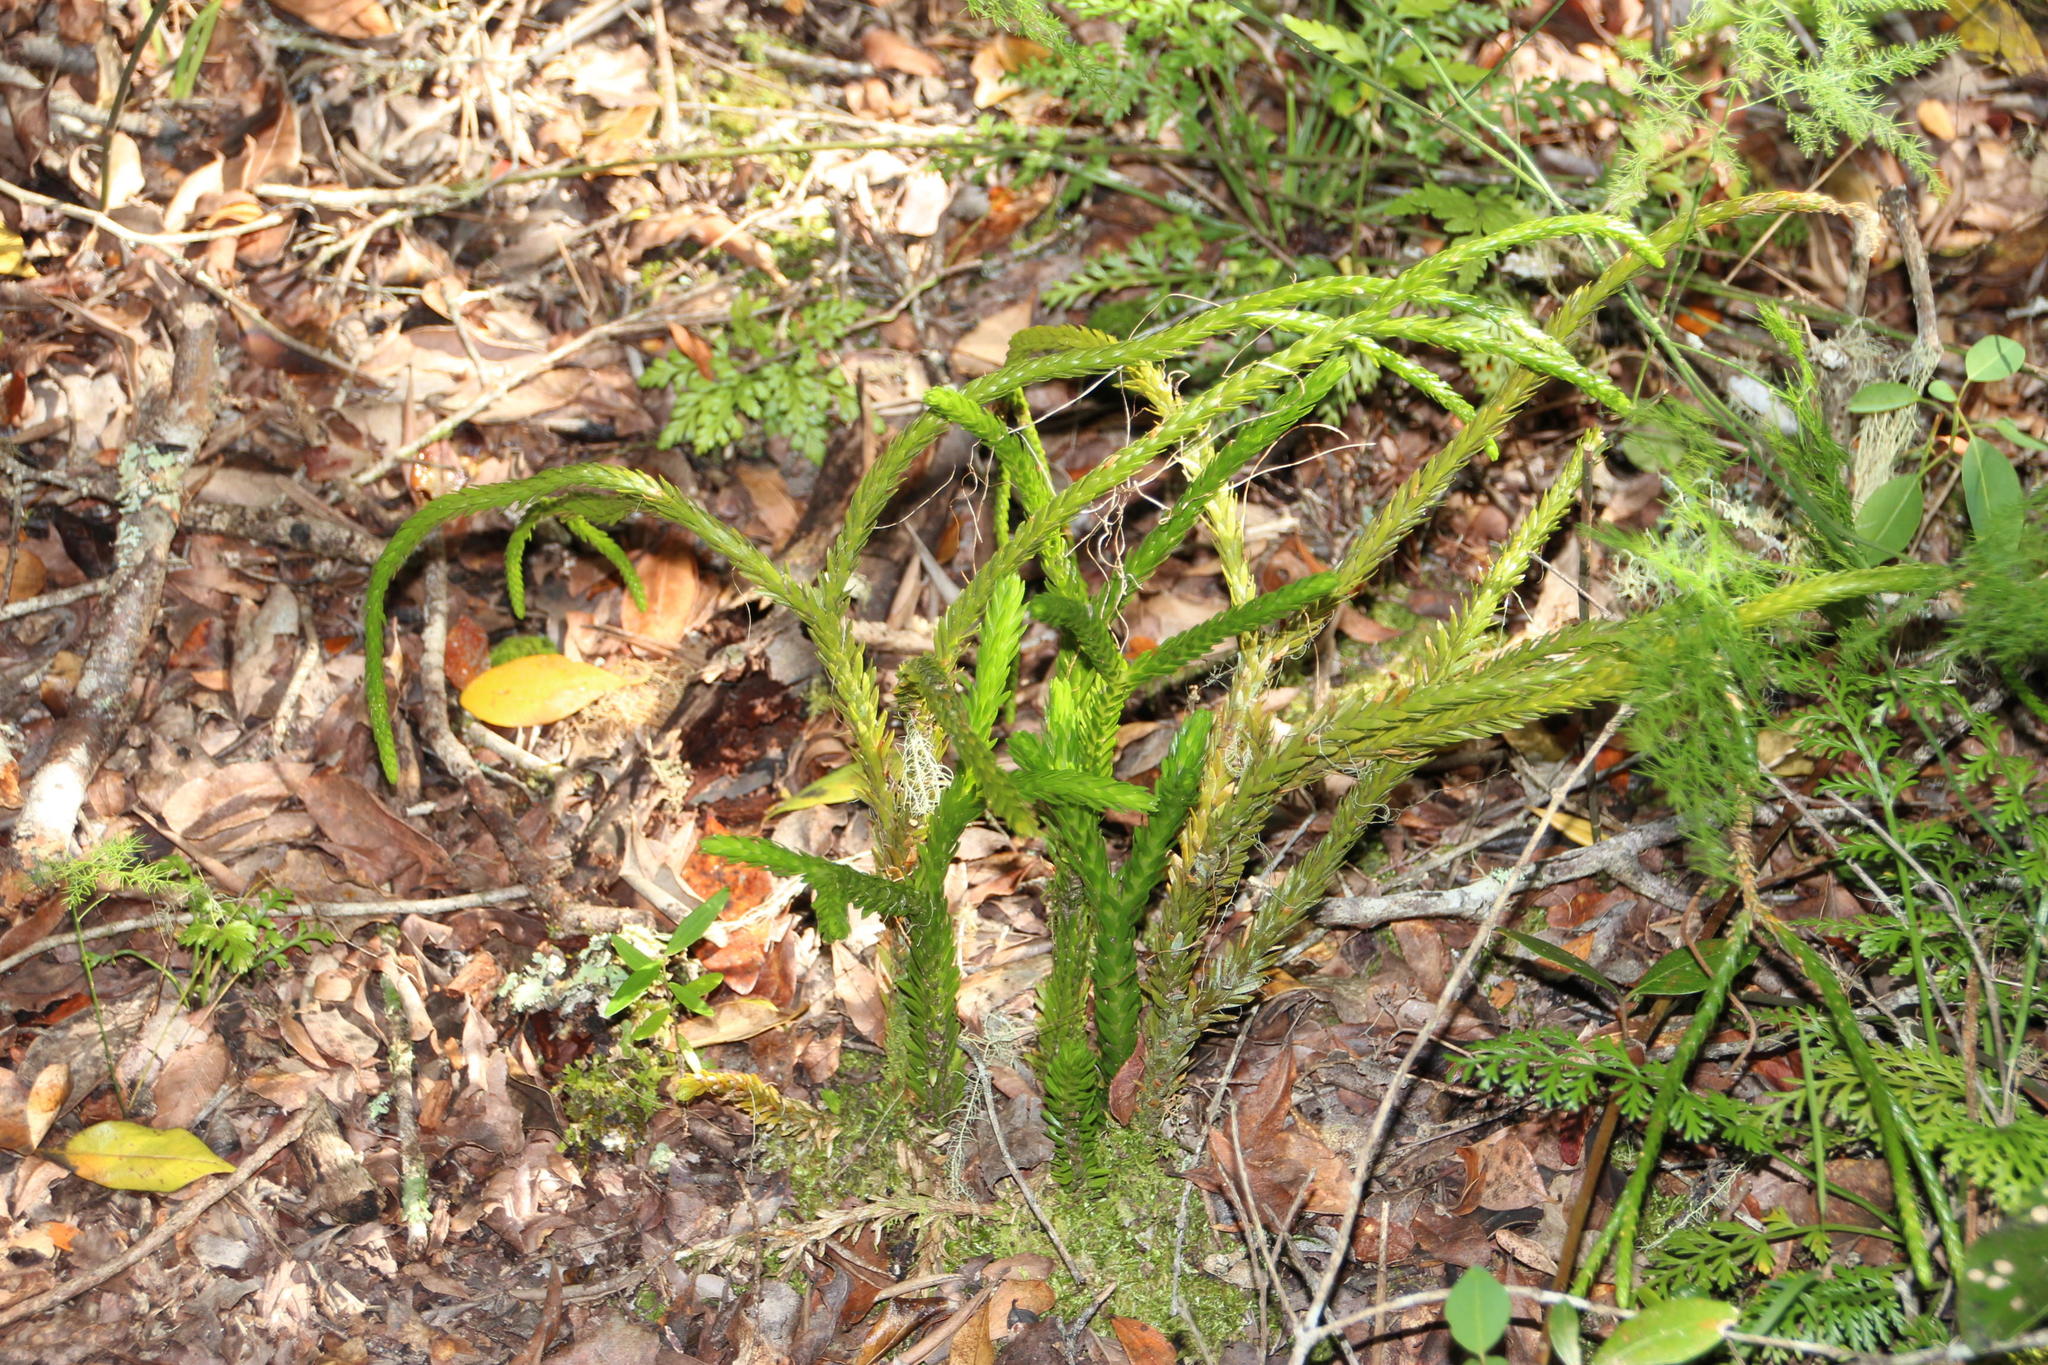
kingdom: Plantae
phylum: Tracheophyta
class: Lycopodiopsida
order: Lycopodiales
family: Lycopodiaceae
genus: Phlegmariurus
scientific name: Phlegmariurus gnidioides
